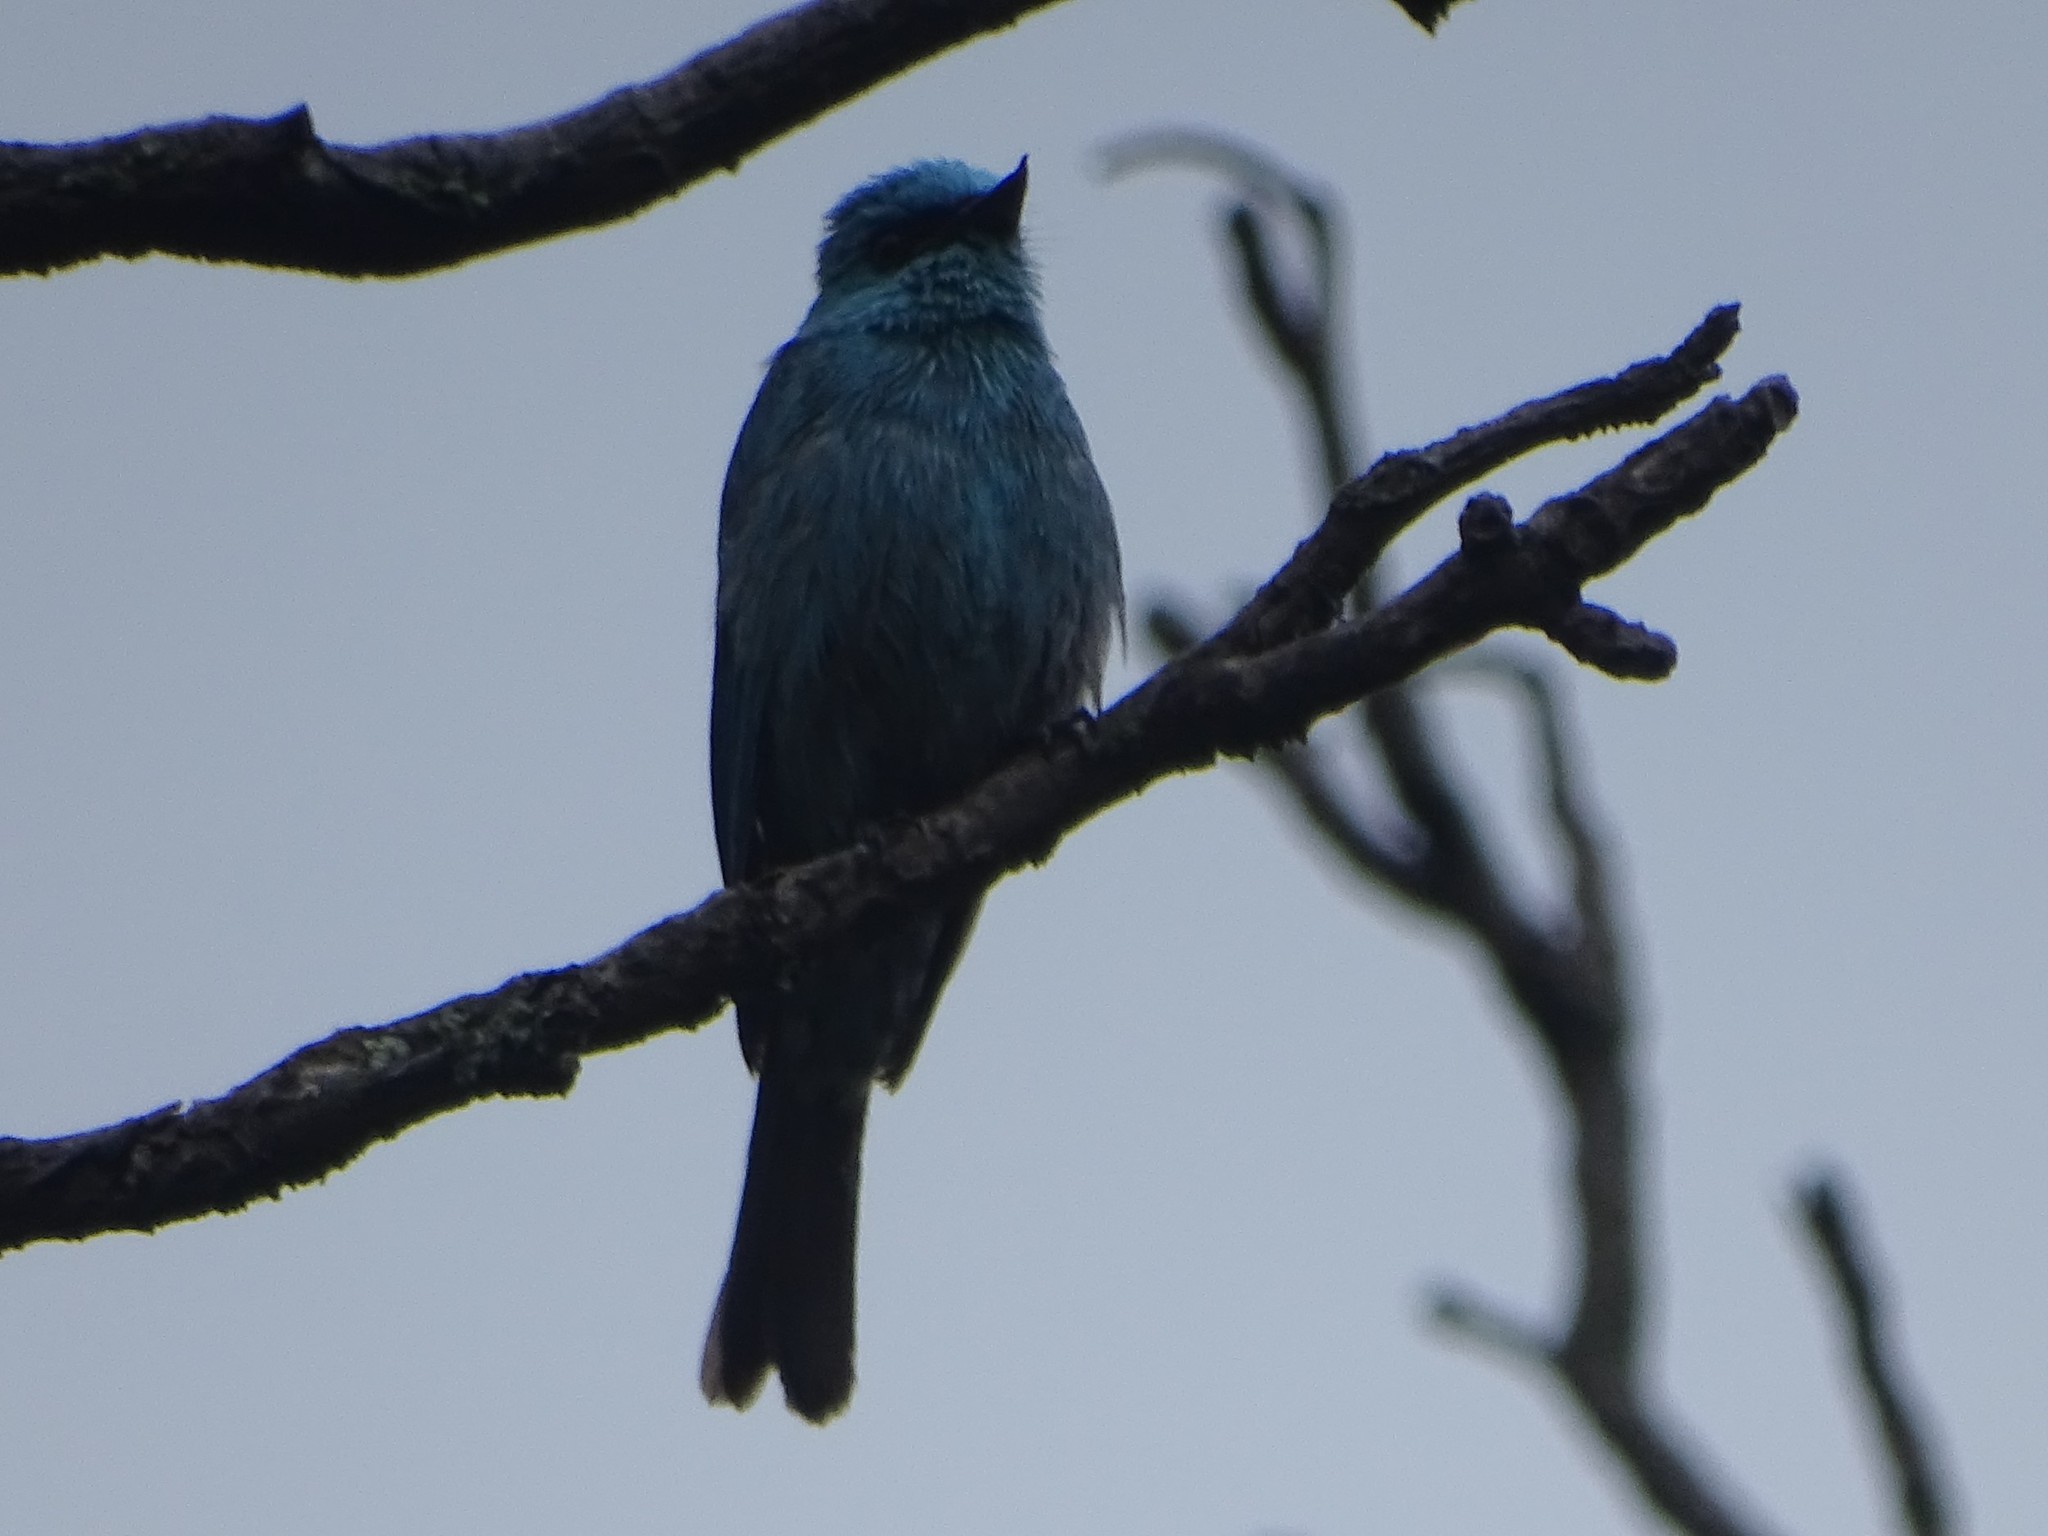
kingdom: Animalia
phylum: Chordata
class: Aves
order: Passeriformes
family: Muscicapidae
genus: Eumyias
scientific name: Eumyias thalassinus
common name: Verditer flycatcher
